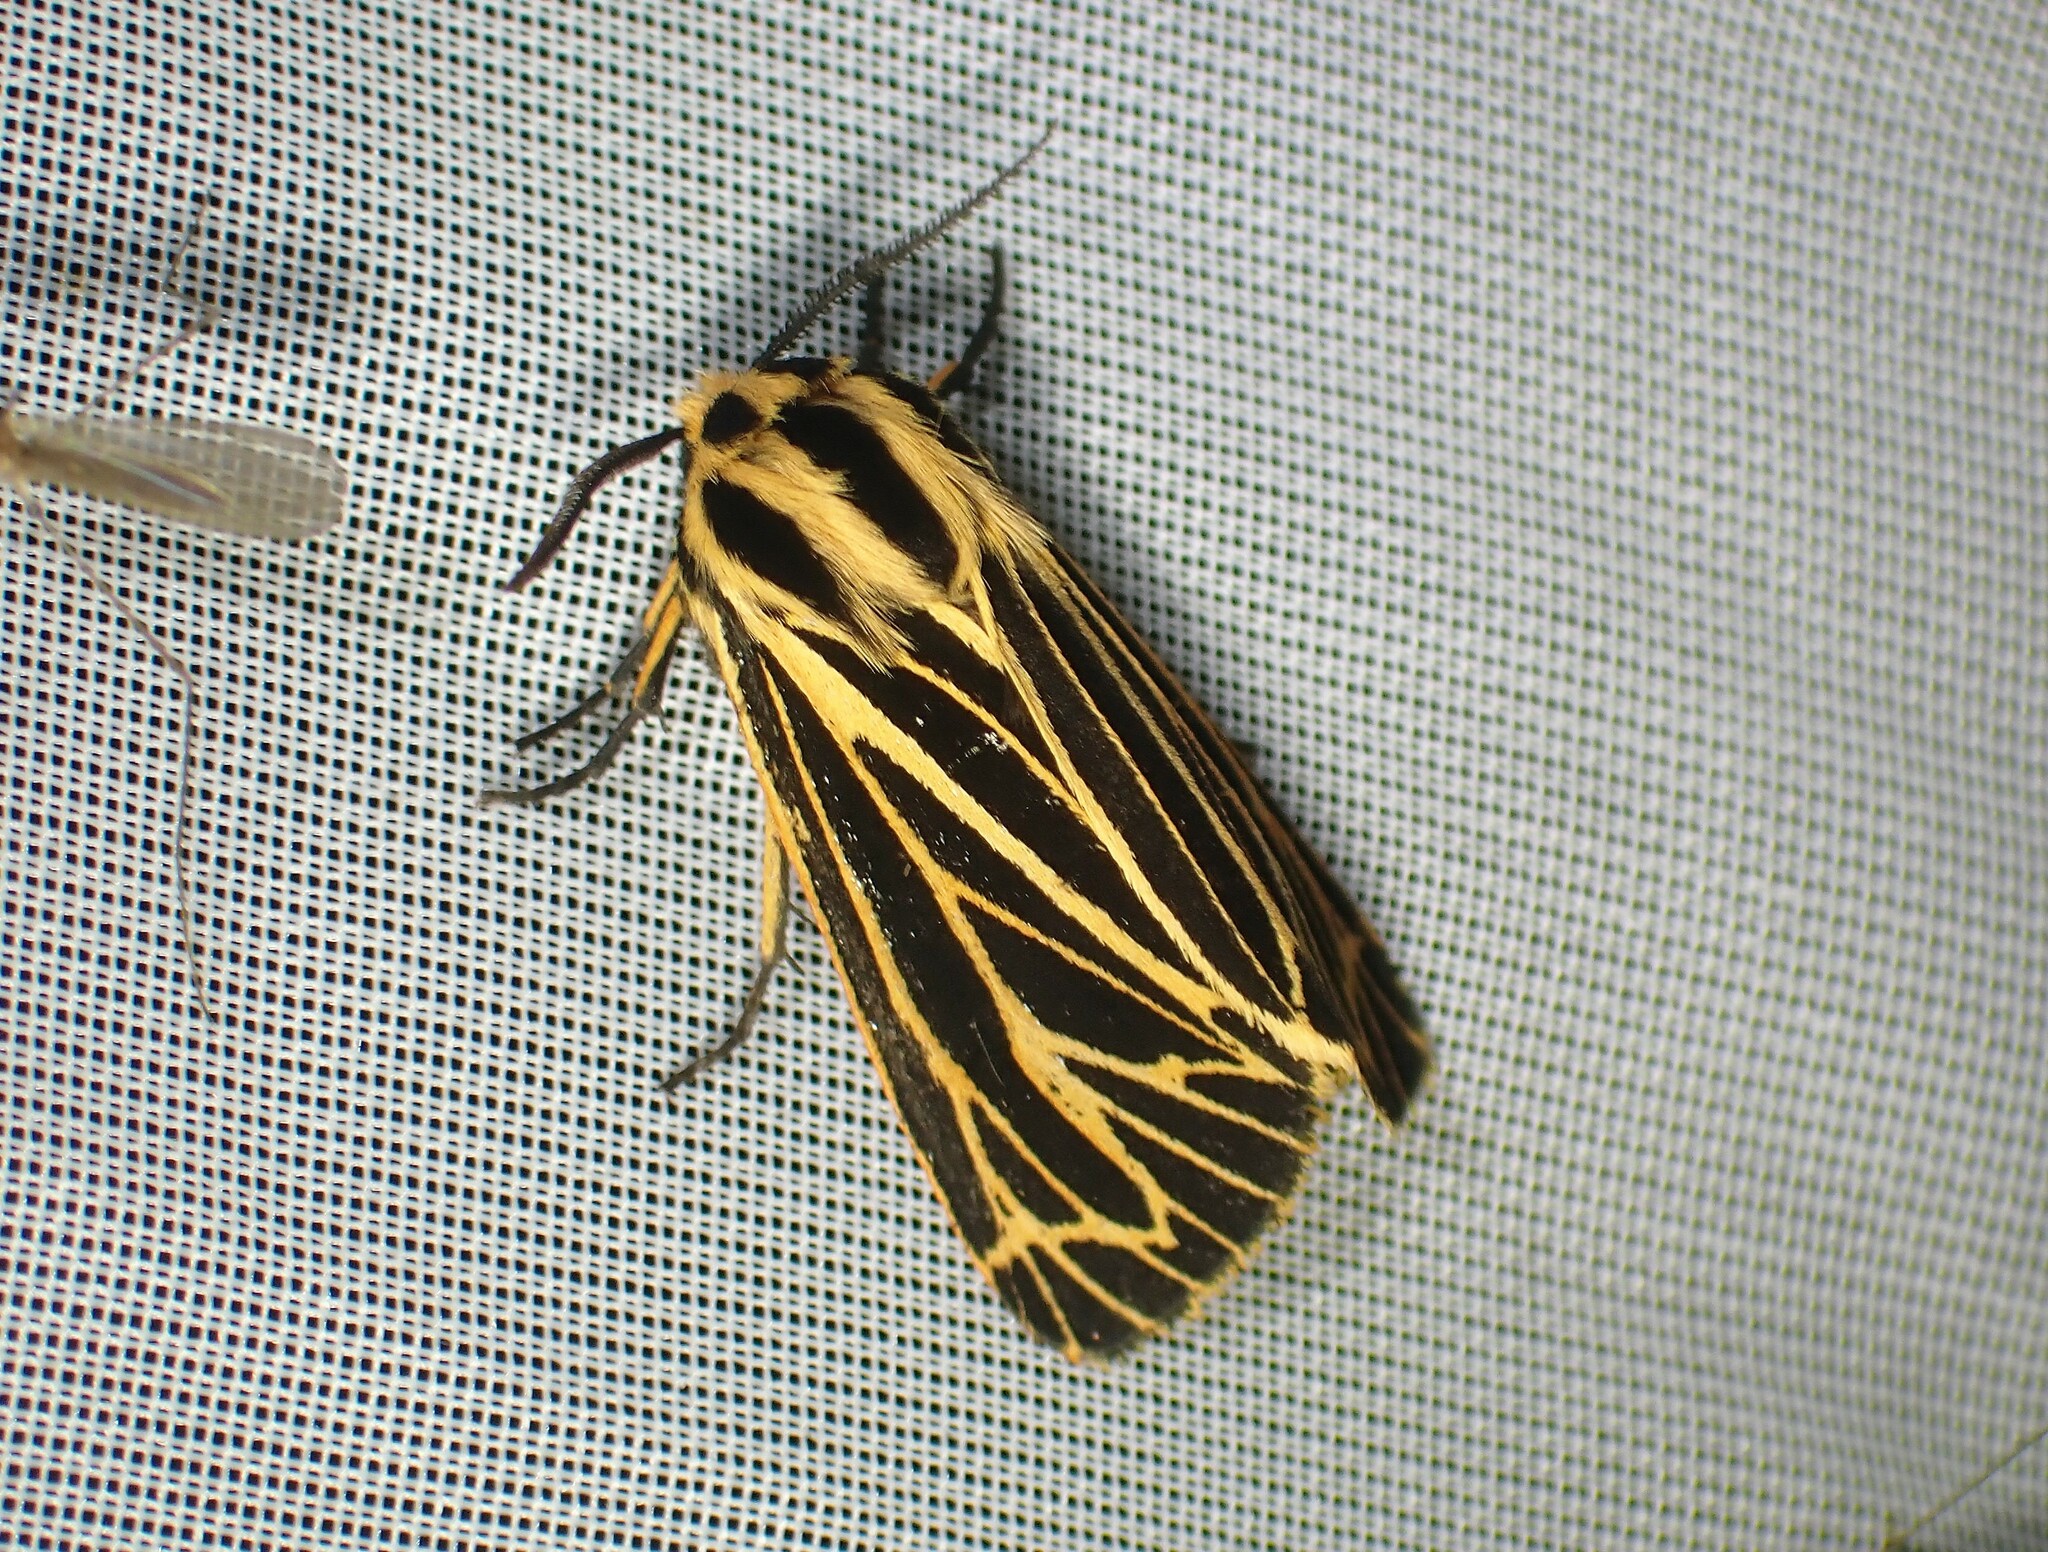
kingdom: Animalia
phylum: Arthropoda
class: Insecta
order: Lepidoptera
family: Erebidae
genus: Grammia
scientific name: Grammia virguncula
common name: Little tiger moth
